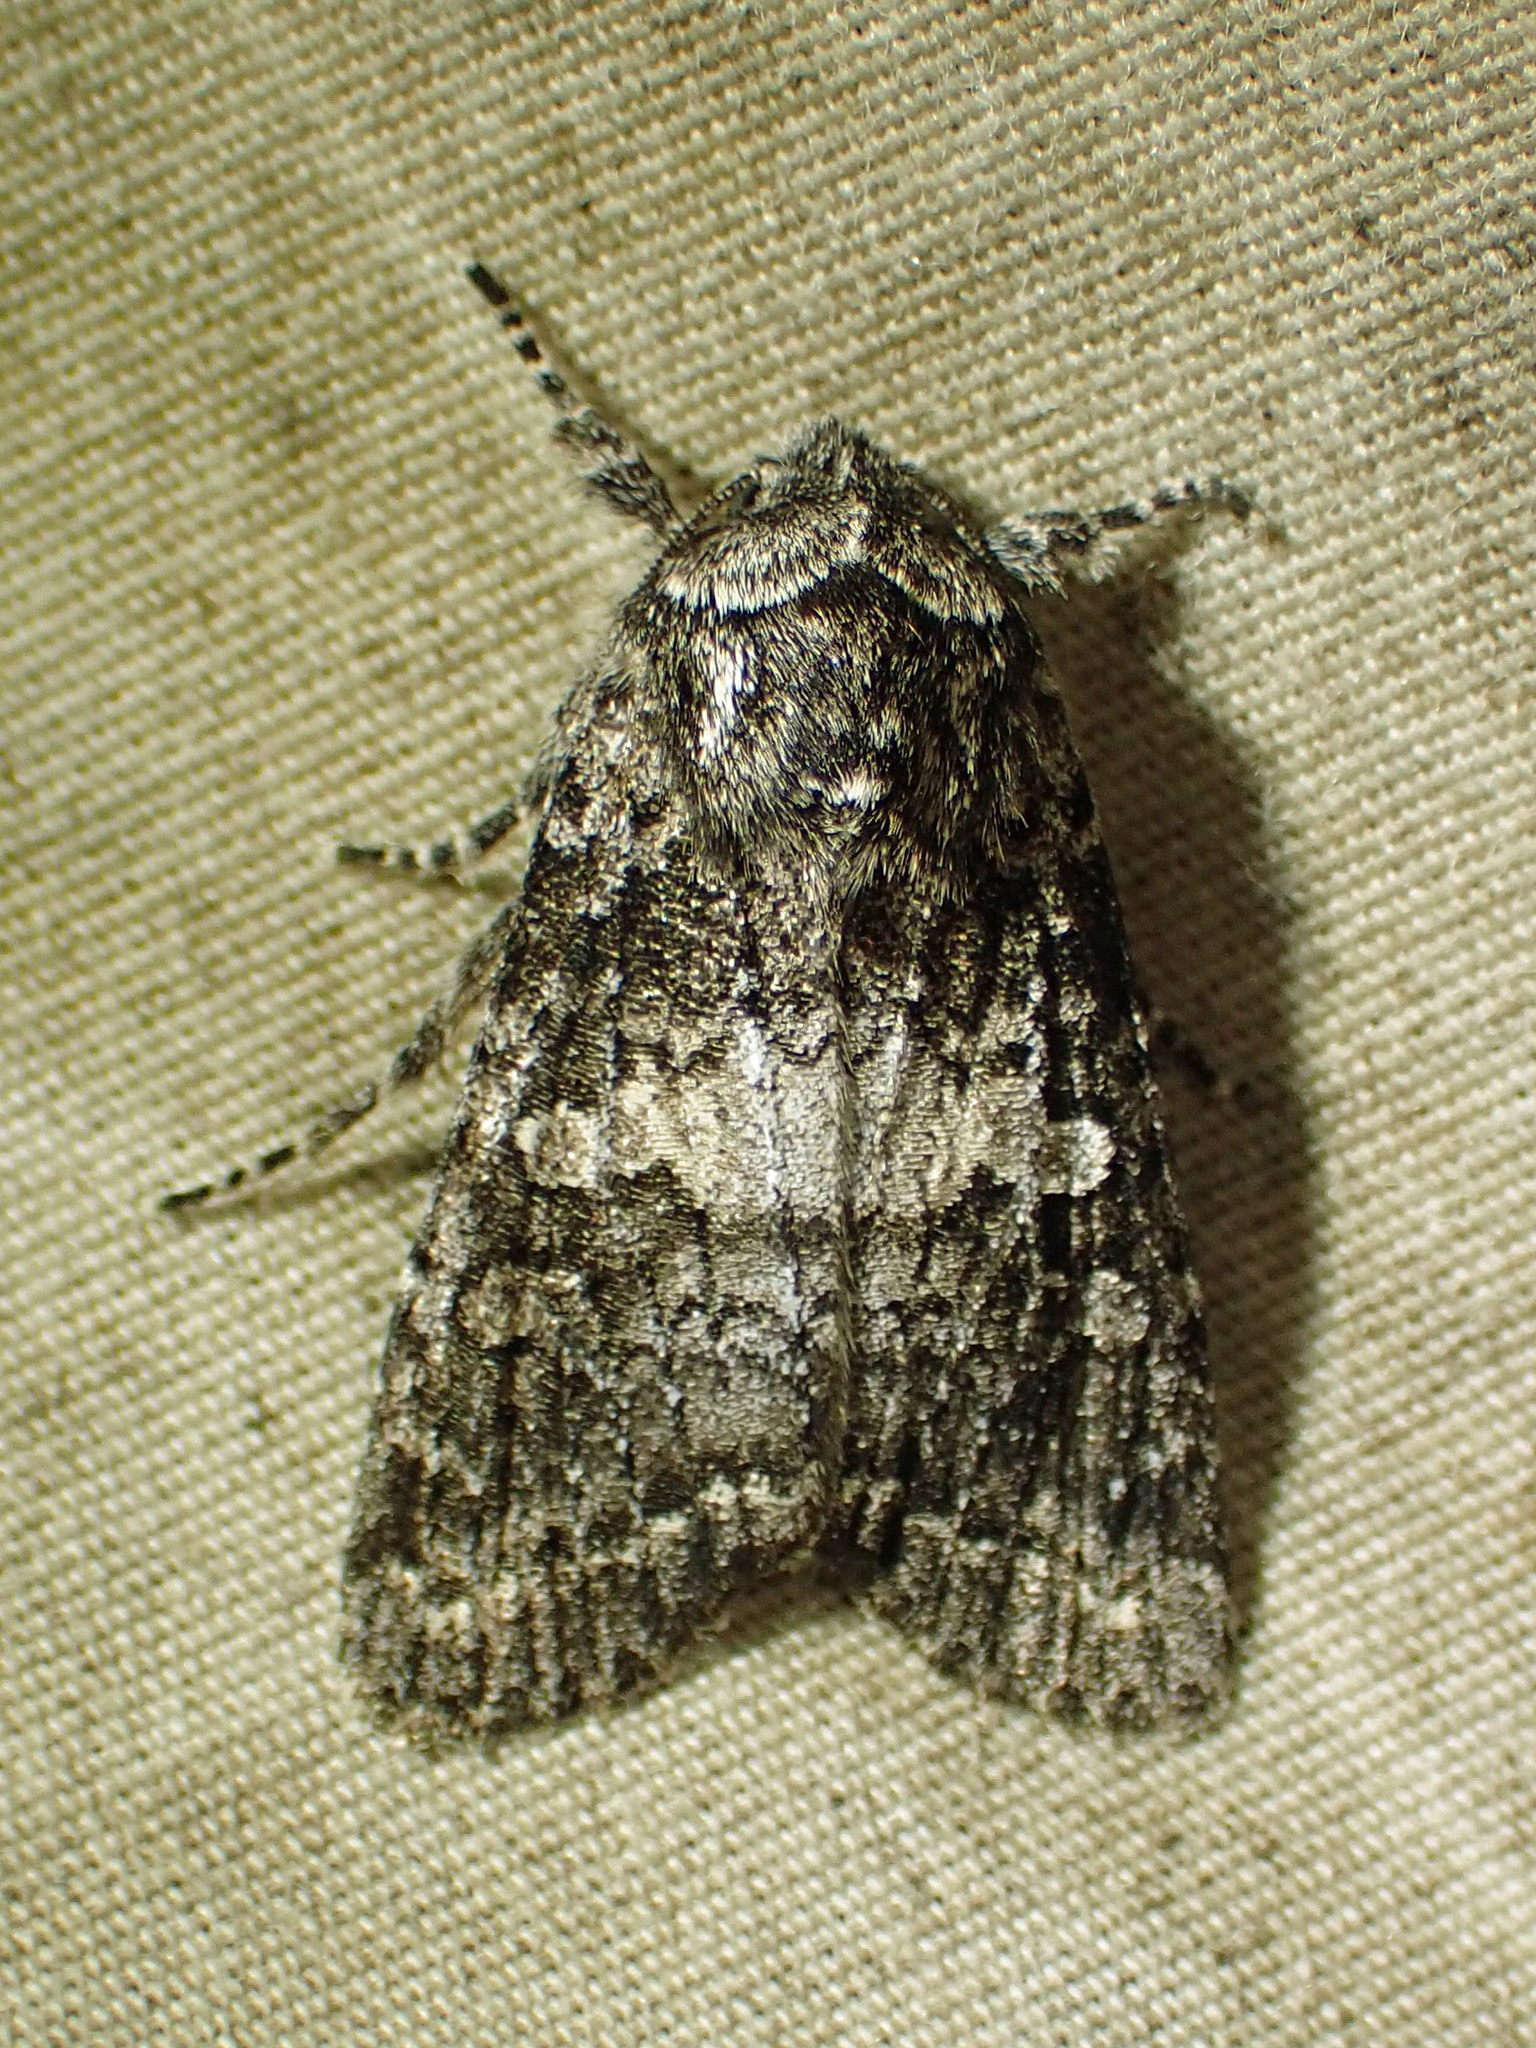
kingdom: Animalia
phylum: Arthropoda
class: Insecta
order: Lepidoptera
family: Noctuidae
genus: Egira
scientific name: Egira dolosa
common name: Lined black aspen cat.
